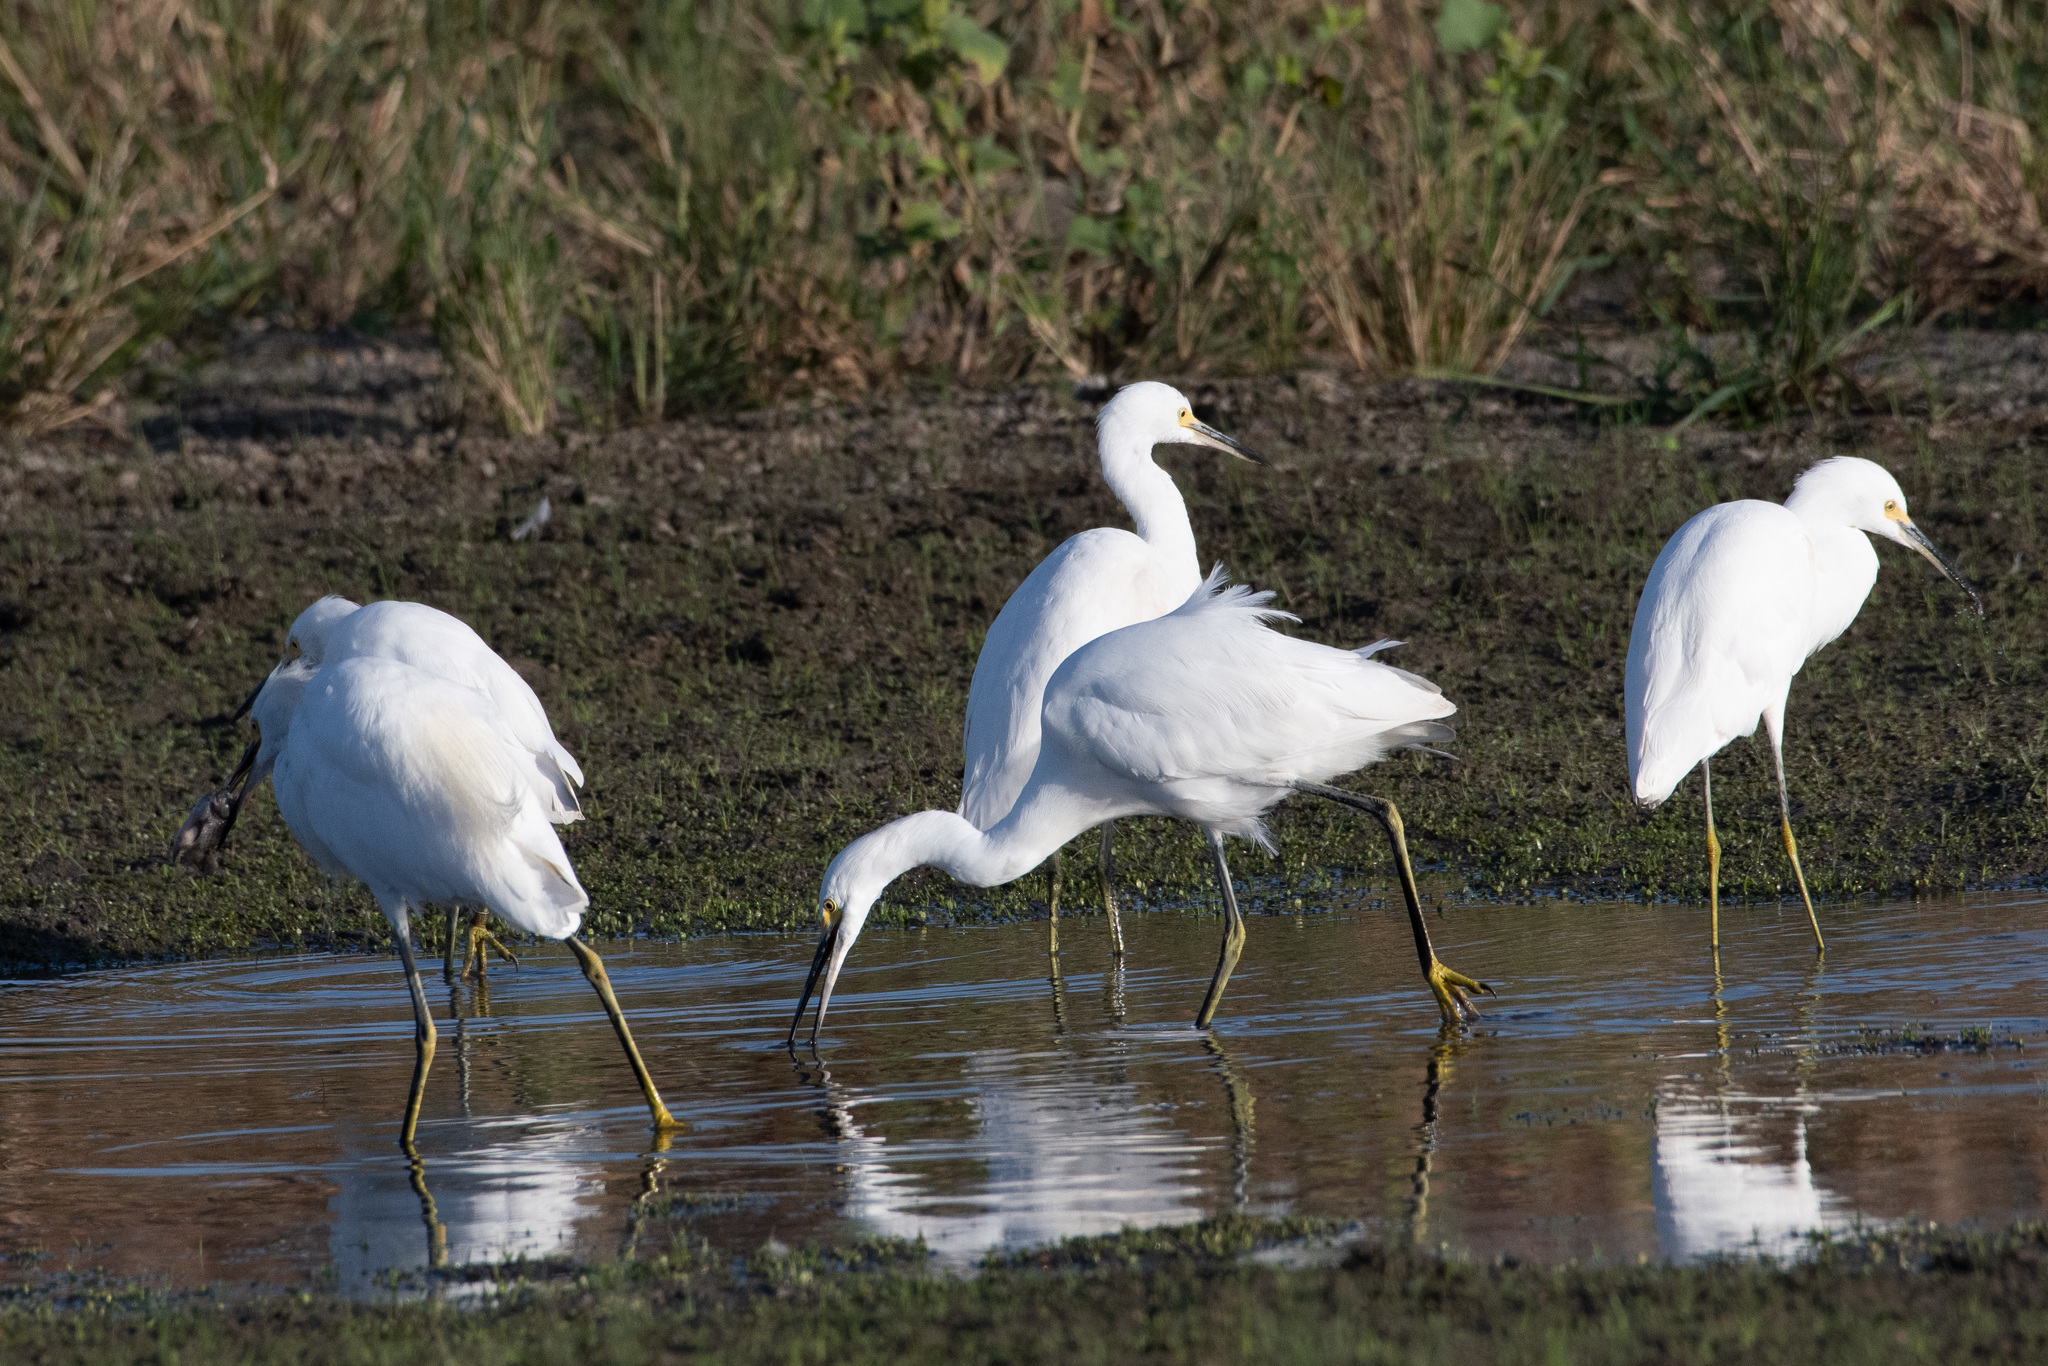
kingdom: Animalia
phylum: Chordata
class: Aves
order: Pelecaniformes
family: Ardeidae
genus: Egretta
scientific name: Egretta thula
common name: Snowy egret
